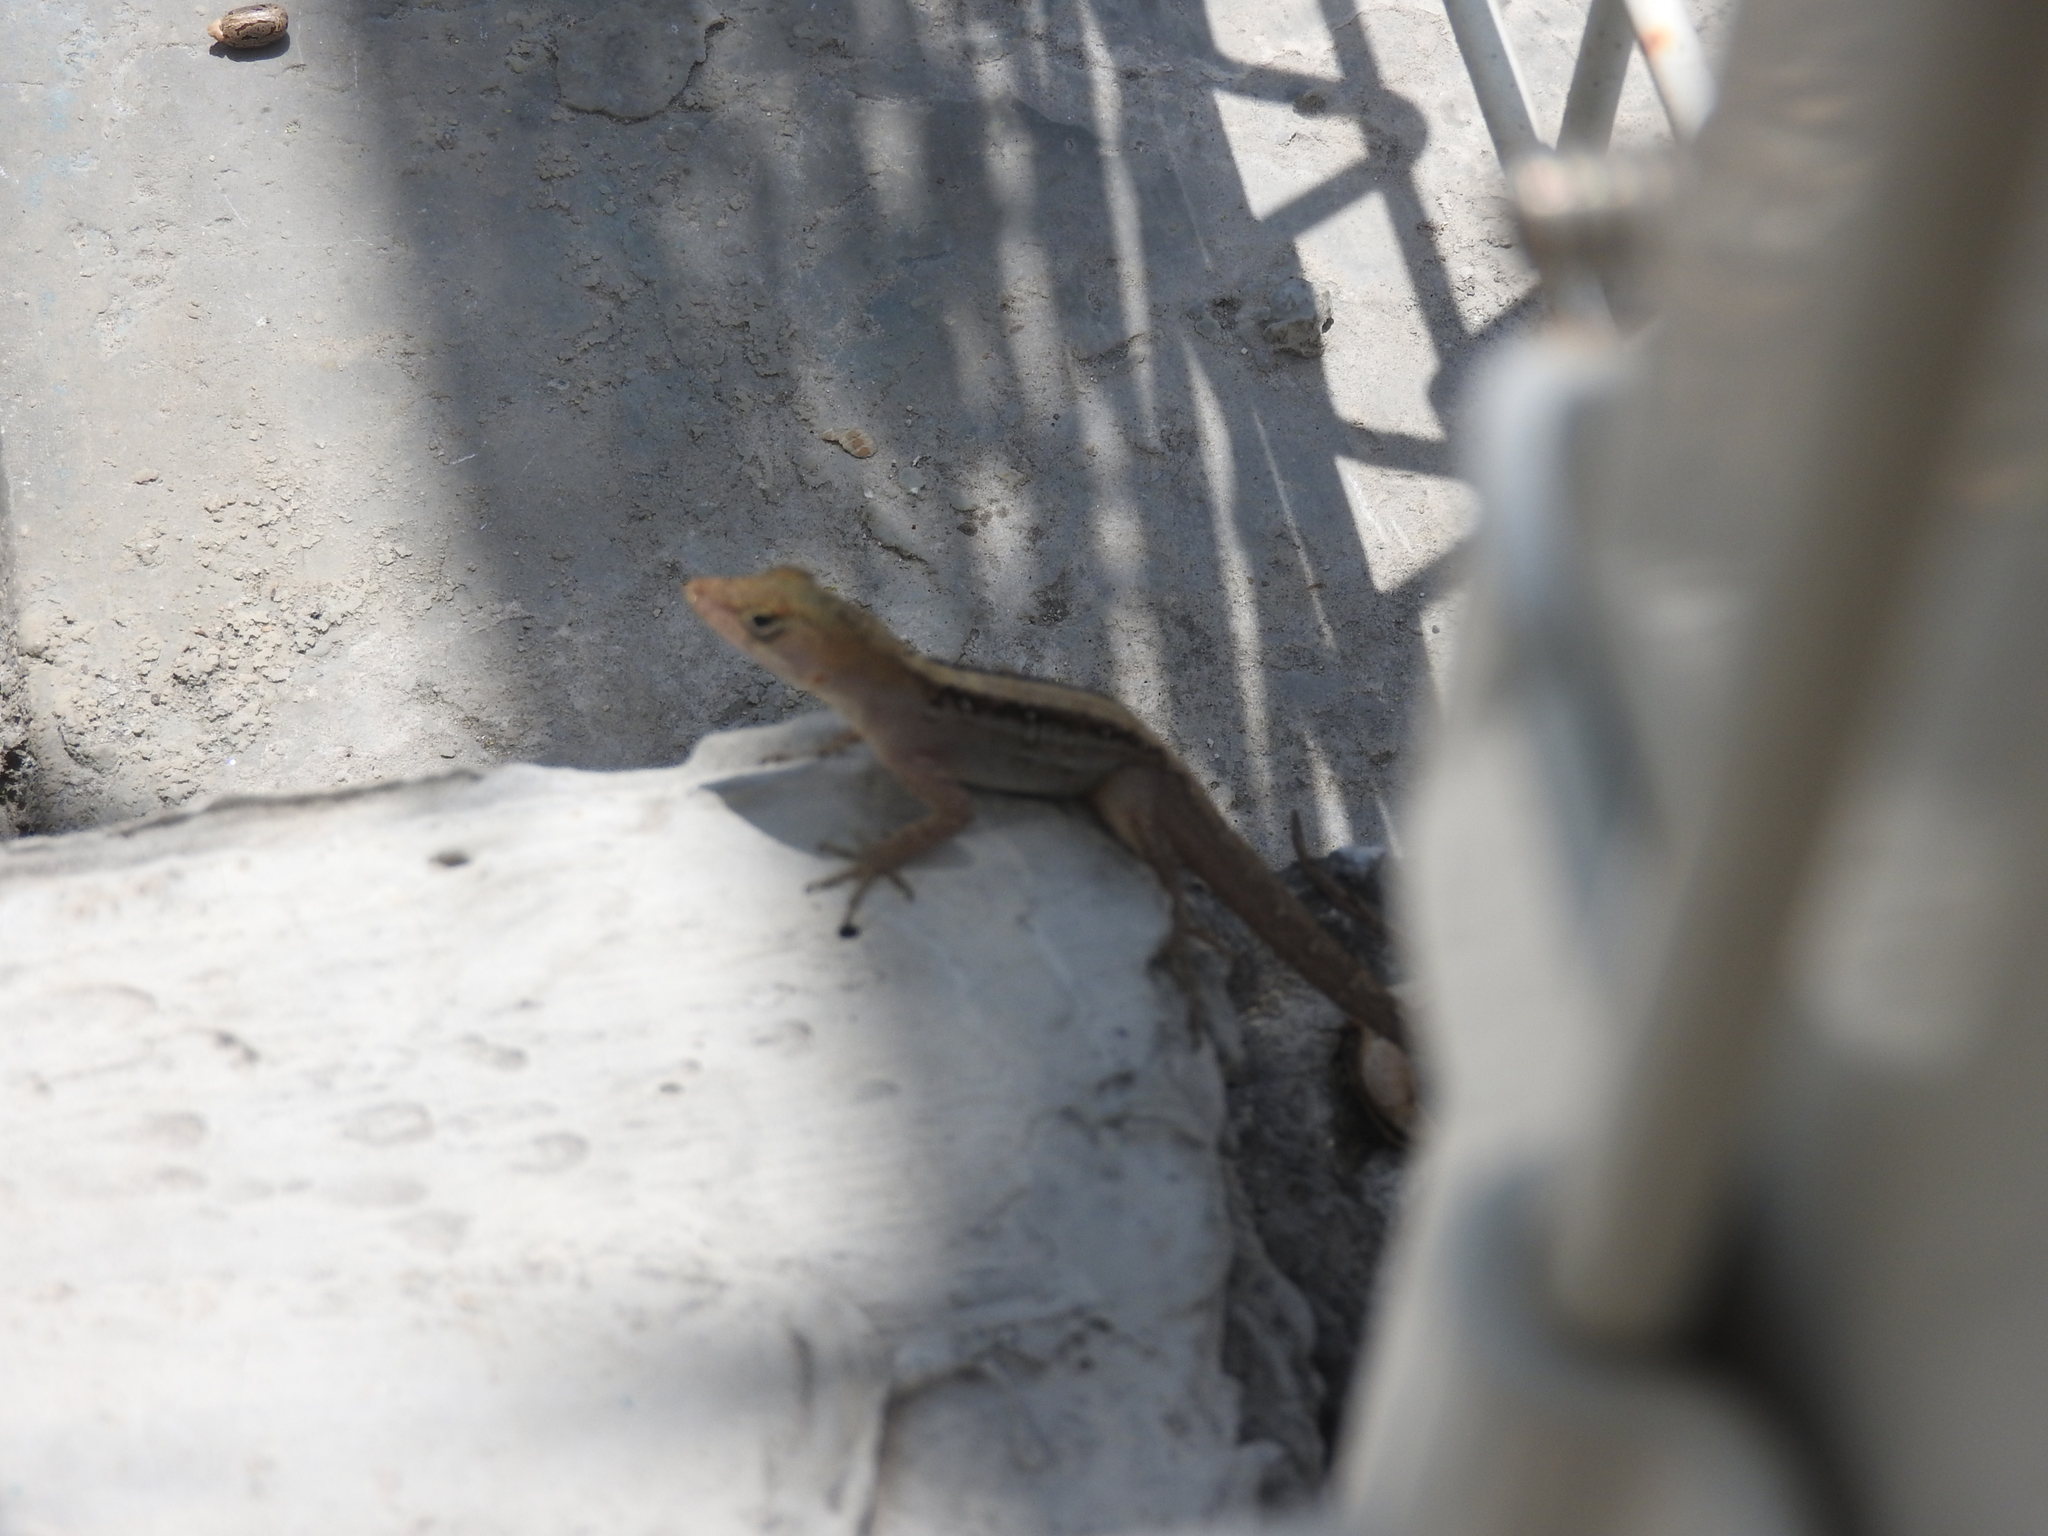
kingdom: Animalia
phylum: Chordata
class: Squamata
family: Dactyloidae
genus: Anolis
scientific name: Anolis sagrei
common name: Brown anole
